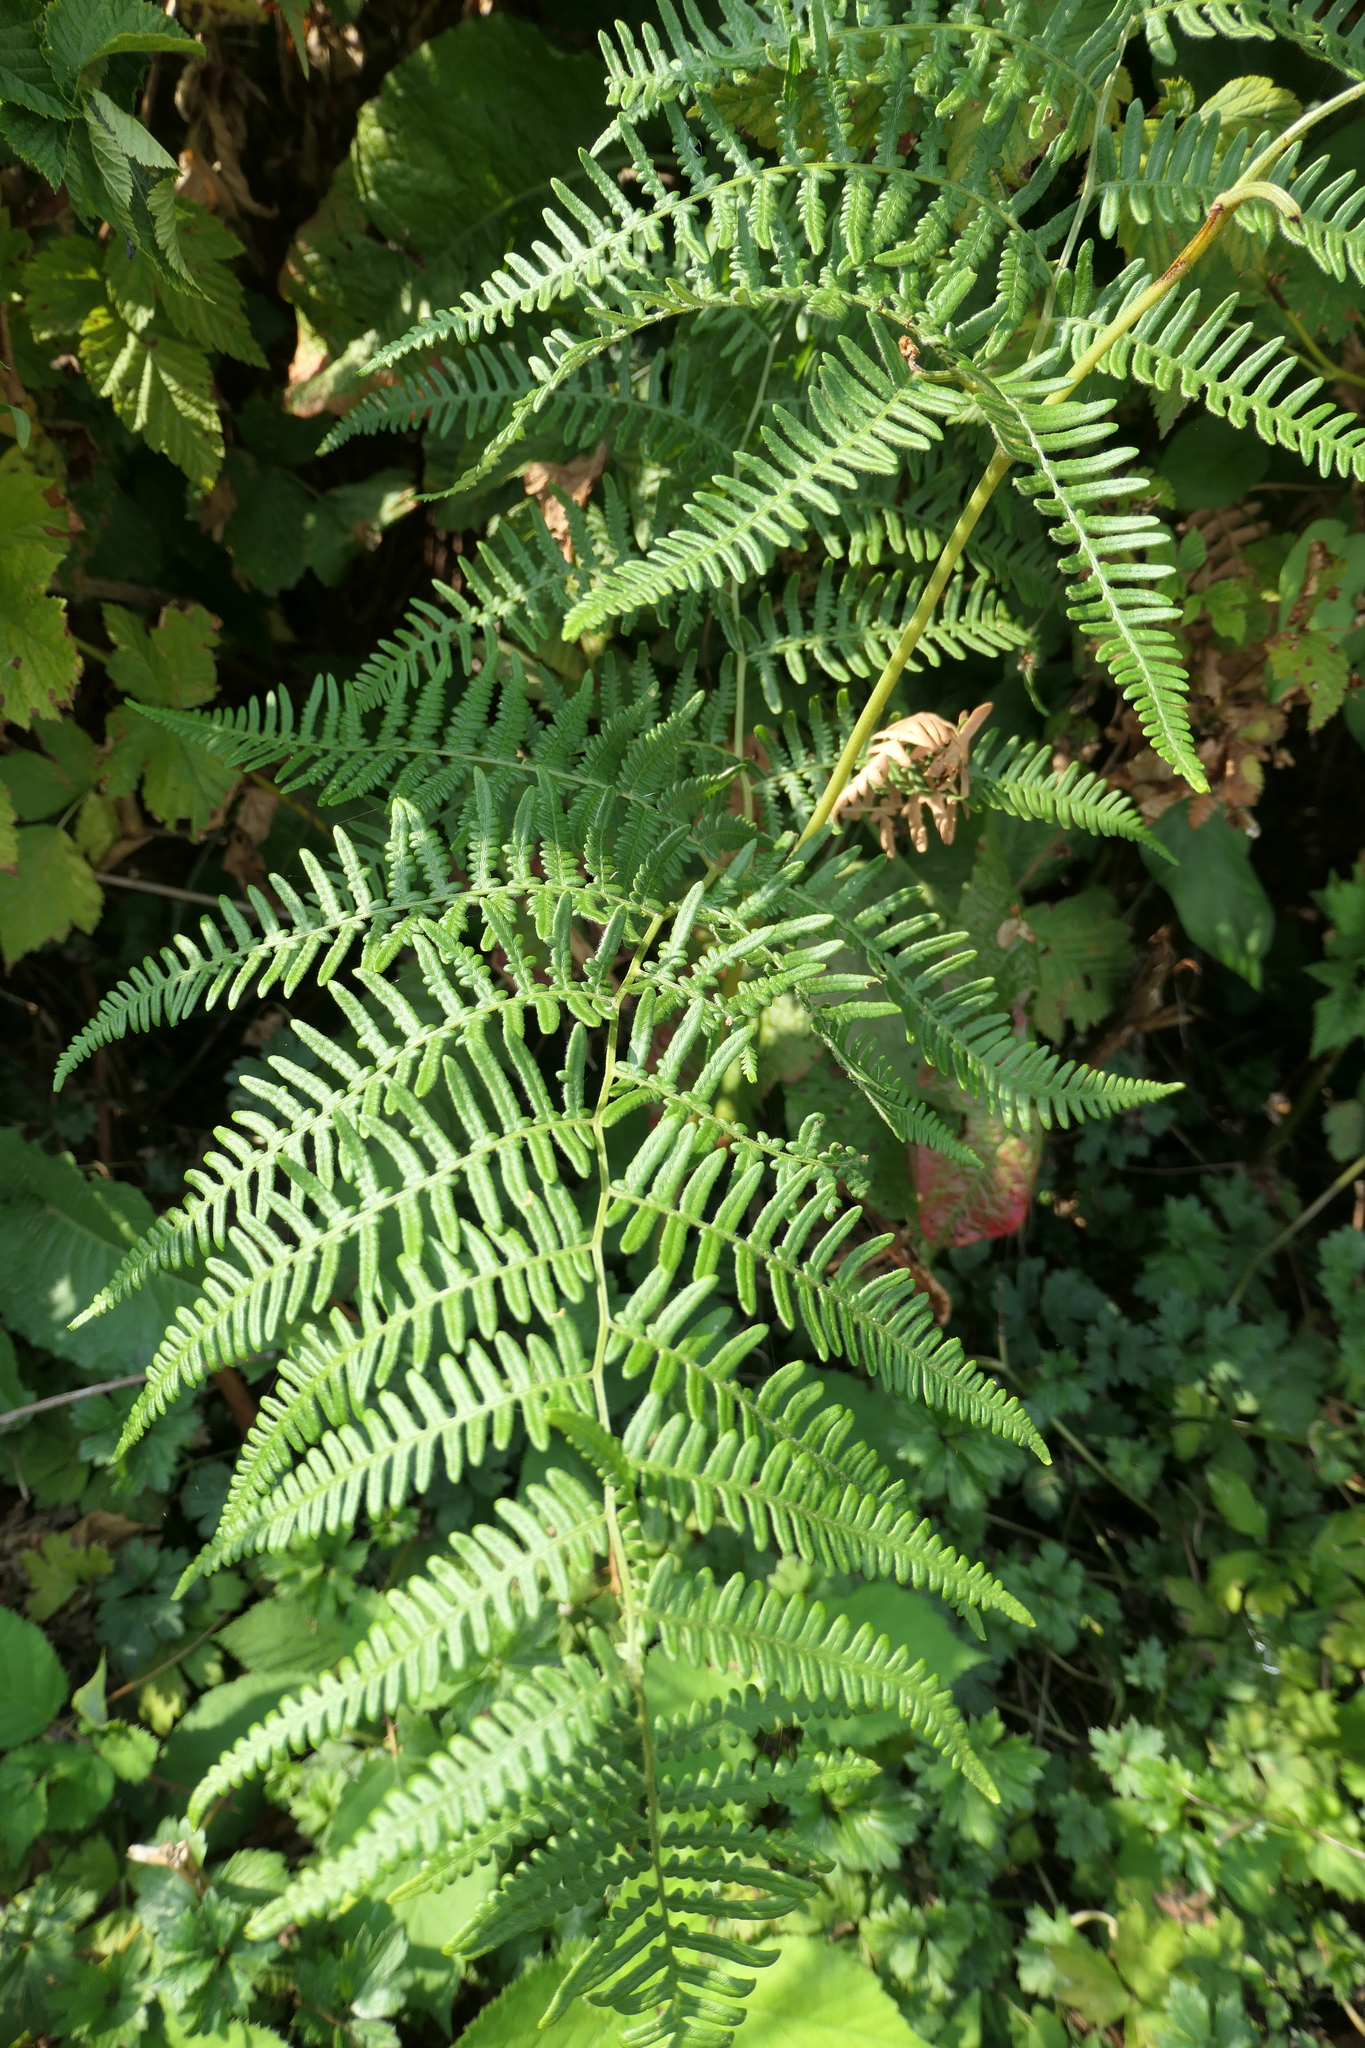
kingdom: Plantae
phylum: Tracheophyta
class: Polypodiopsida
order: Polypodiales
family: Dennstaedtiaceae
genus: Pteridium
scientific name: Pteridium aquilinum
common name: Bracken
